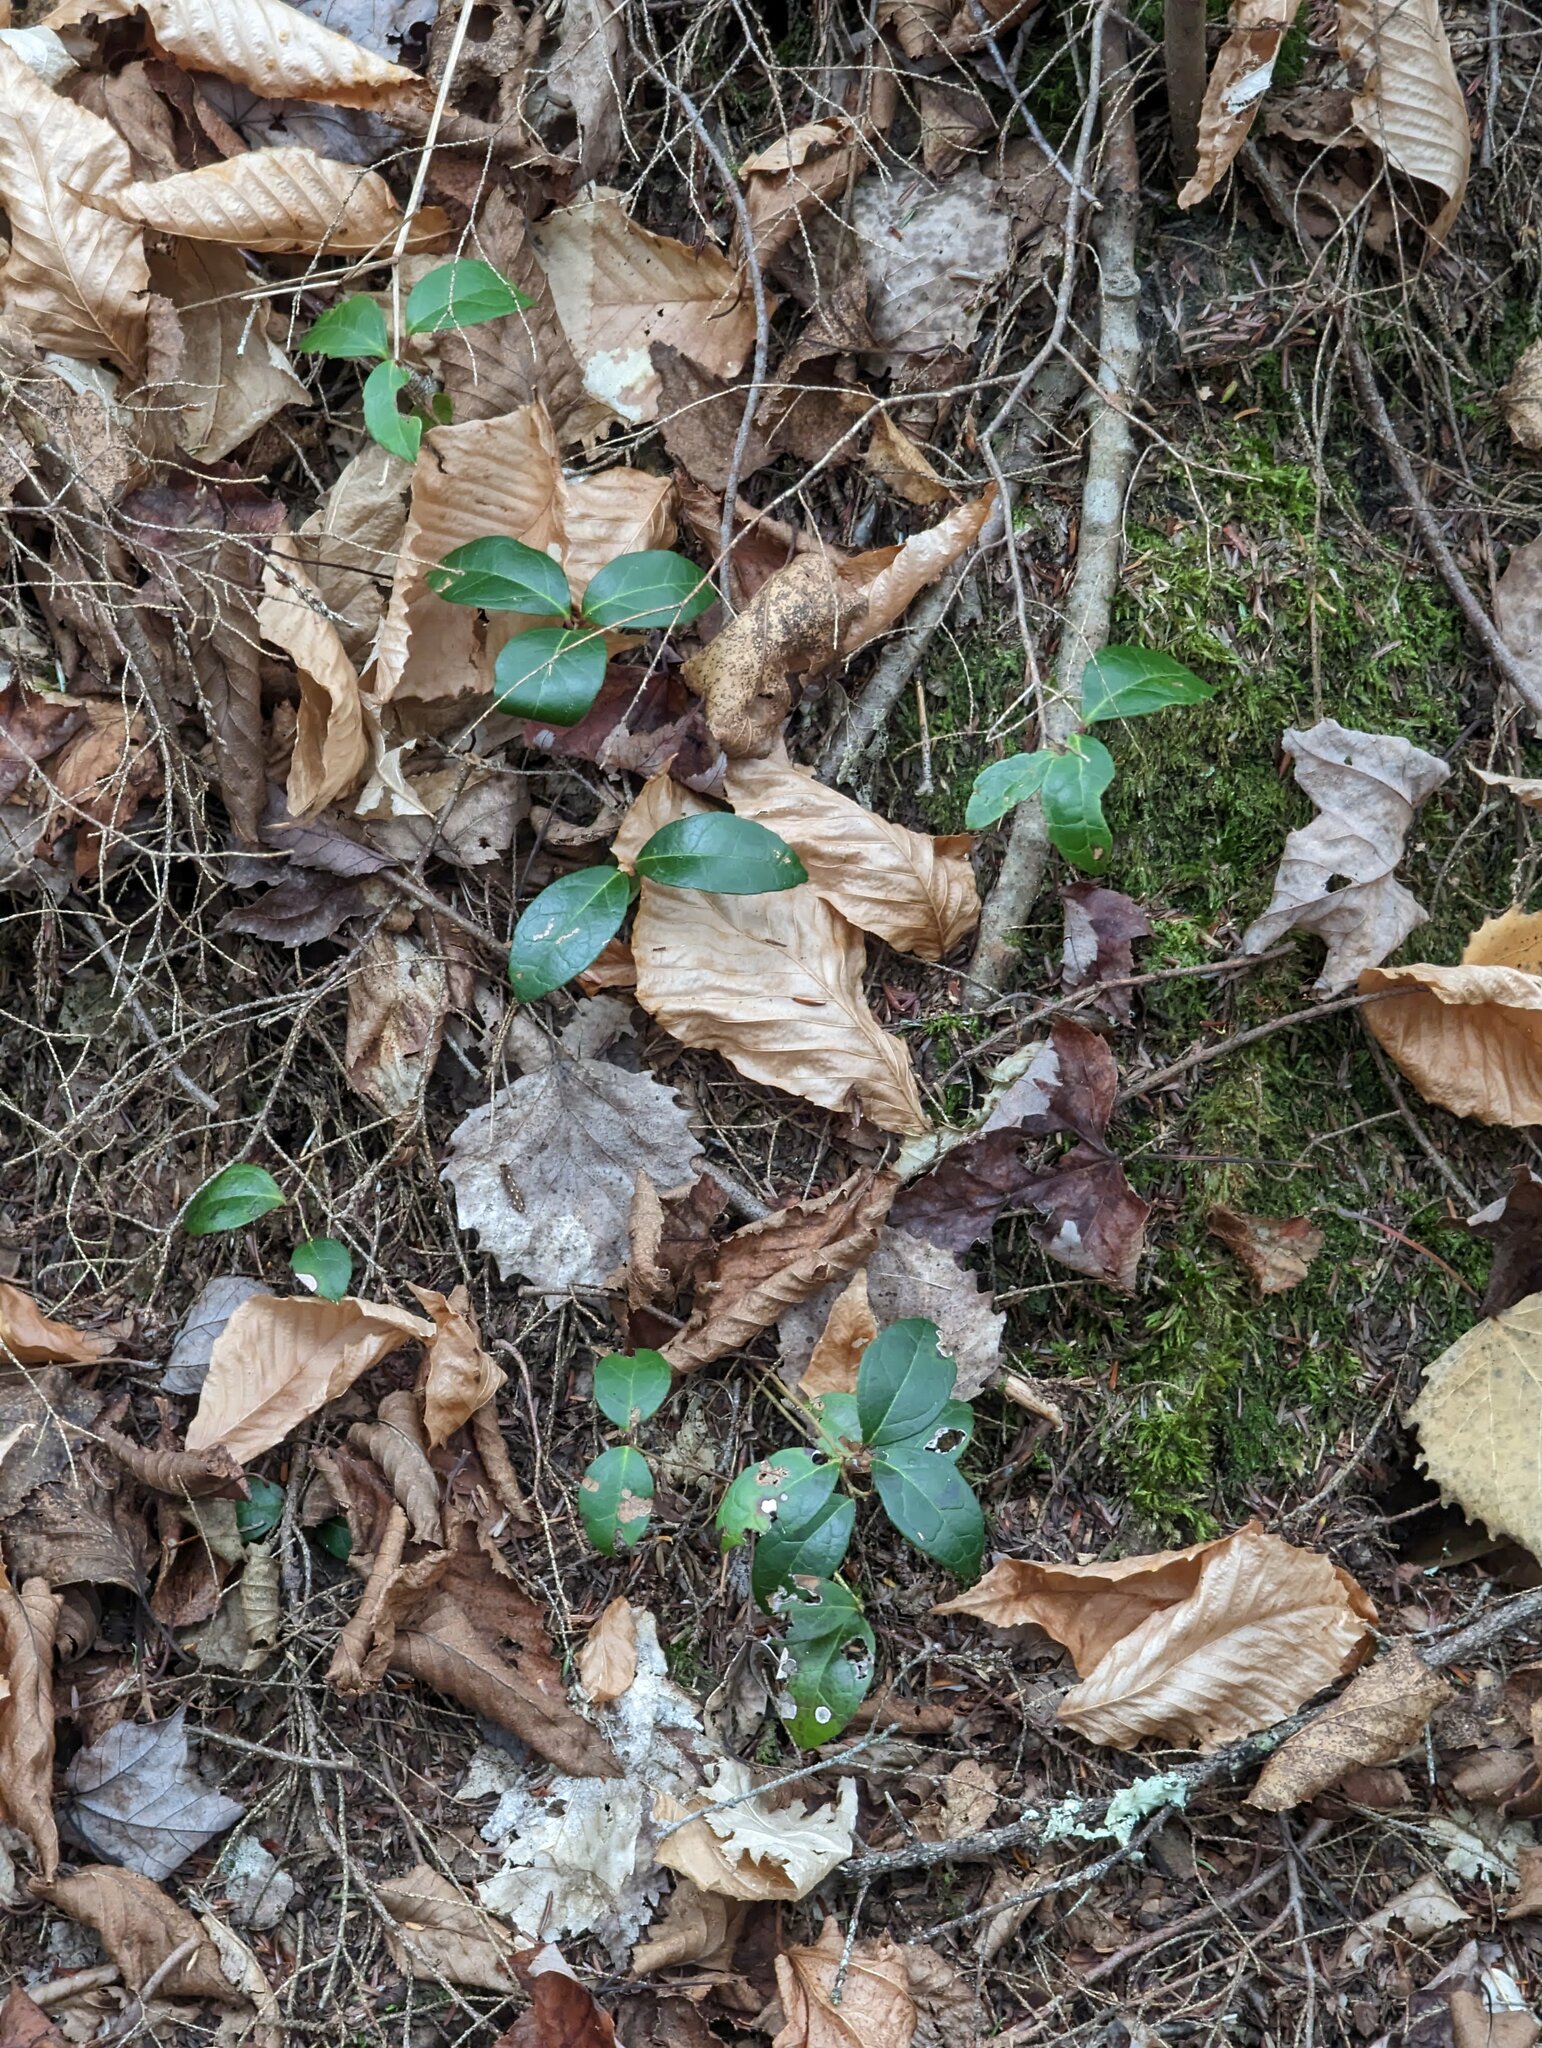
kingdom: Plantae
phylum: Tracheophyta
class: Magnoliopsida
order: Ericales
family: Ericaceae
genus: Gaultheria
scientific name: Gaultheria procumbens
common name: Checkerberry
